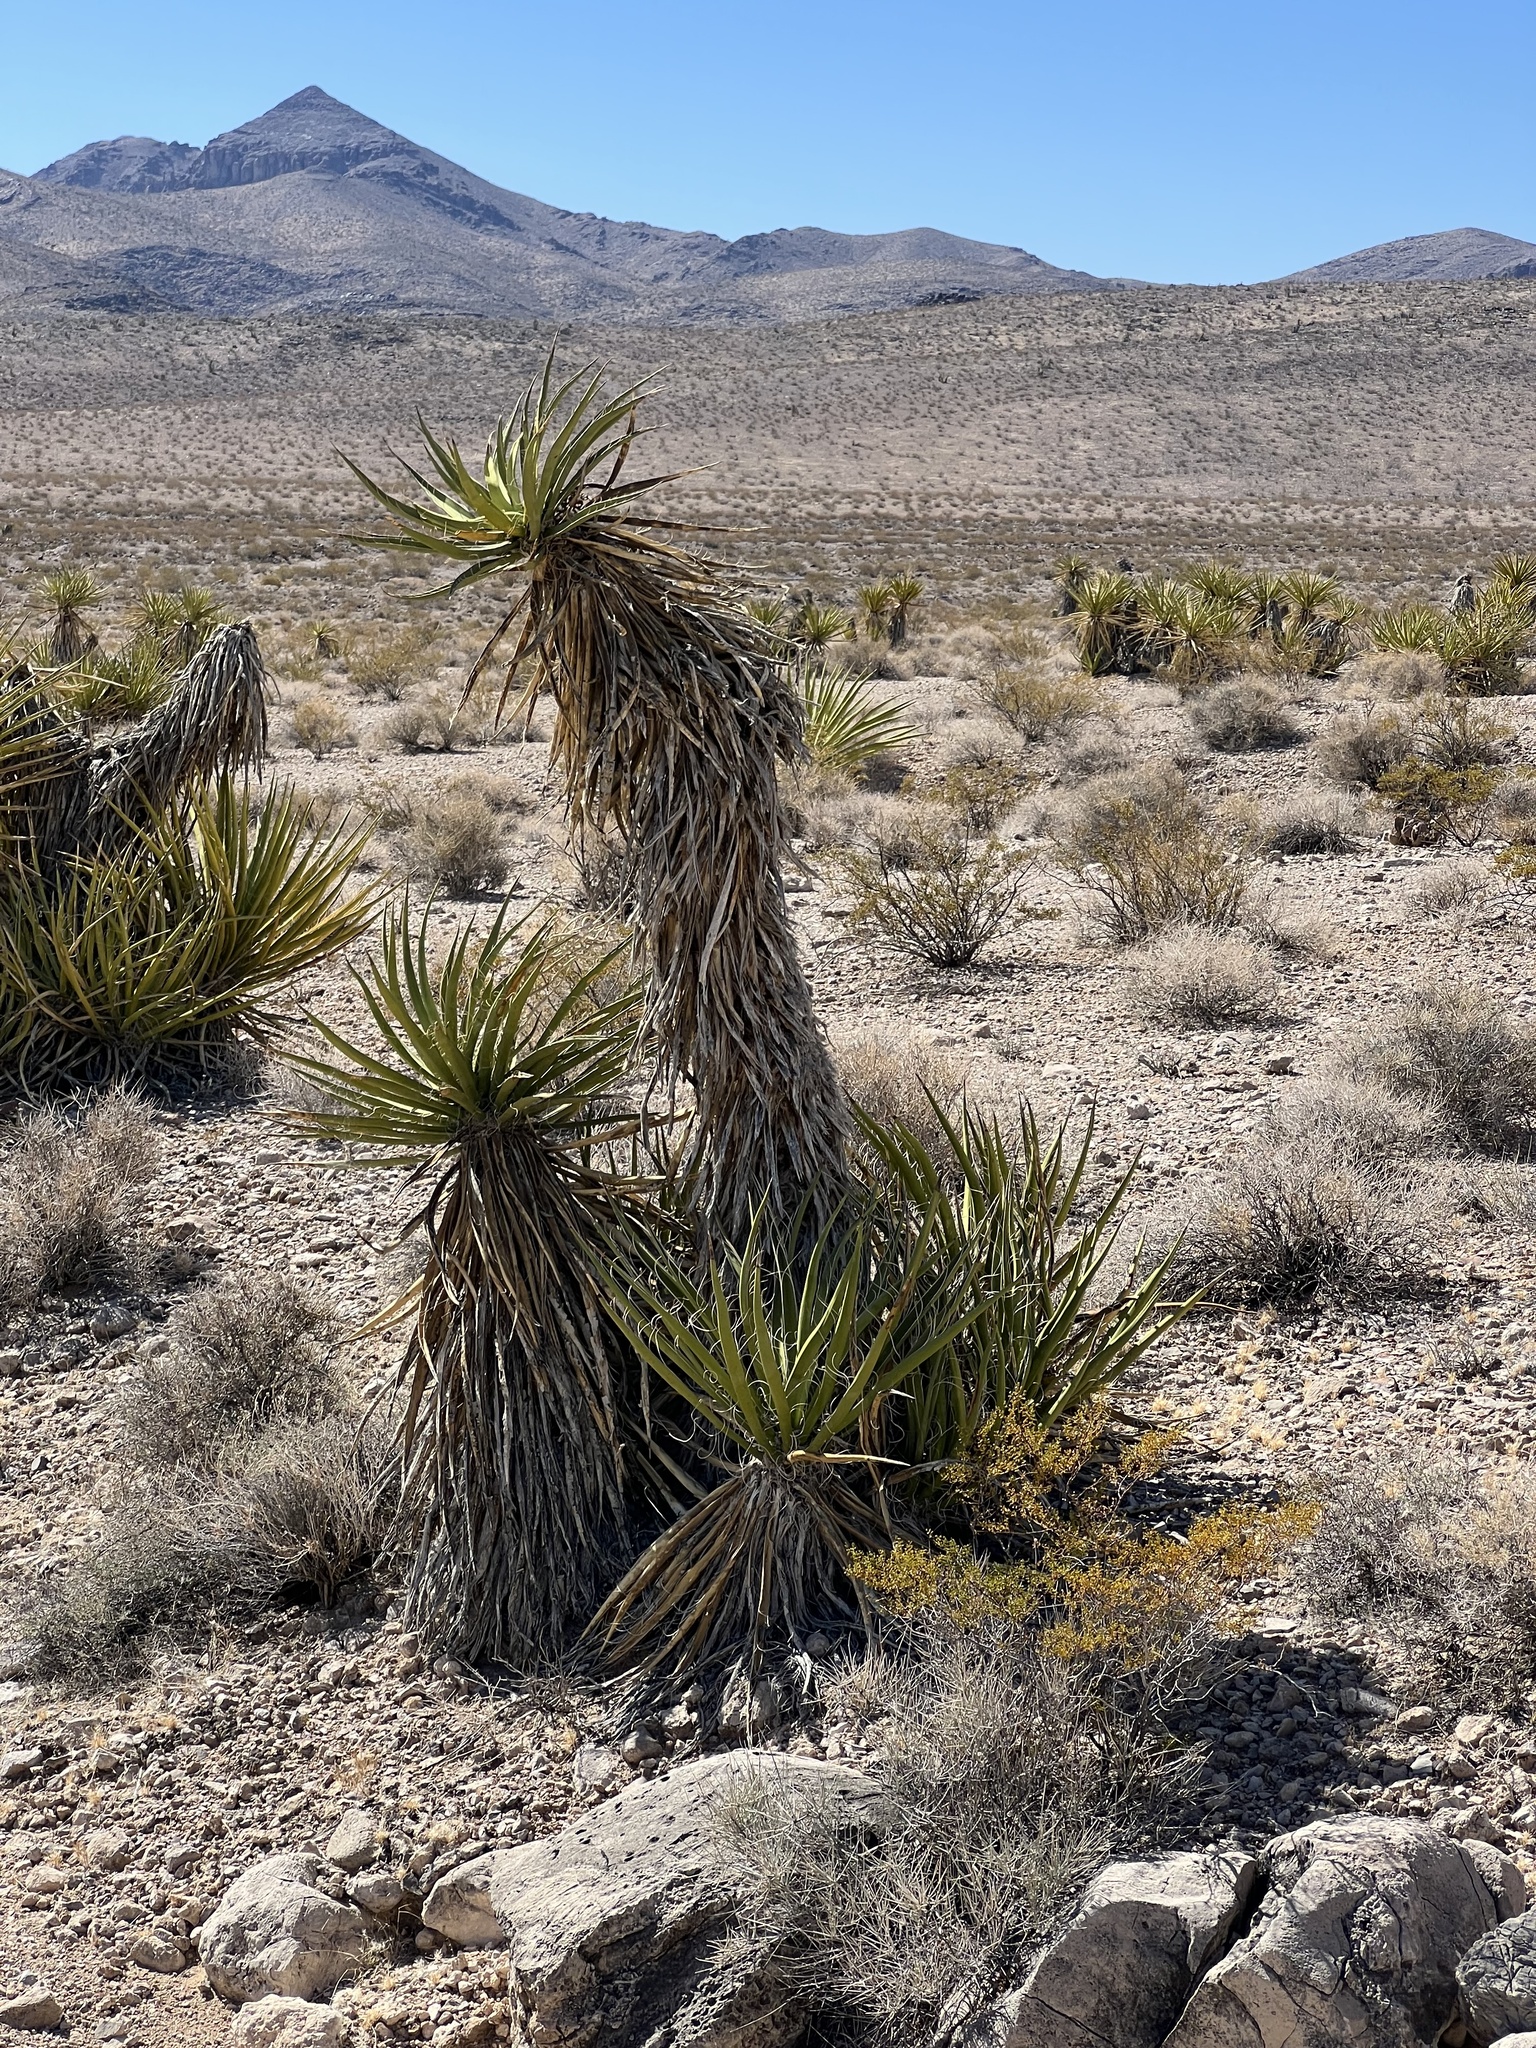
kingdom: Plantae
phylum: Tracheophyta
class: Liliopsida
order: Asparagales
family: Asparagaceae
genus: Yucca
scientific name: Yucca schidigera
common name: Mojave yucca
